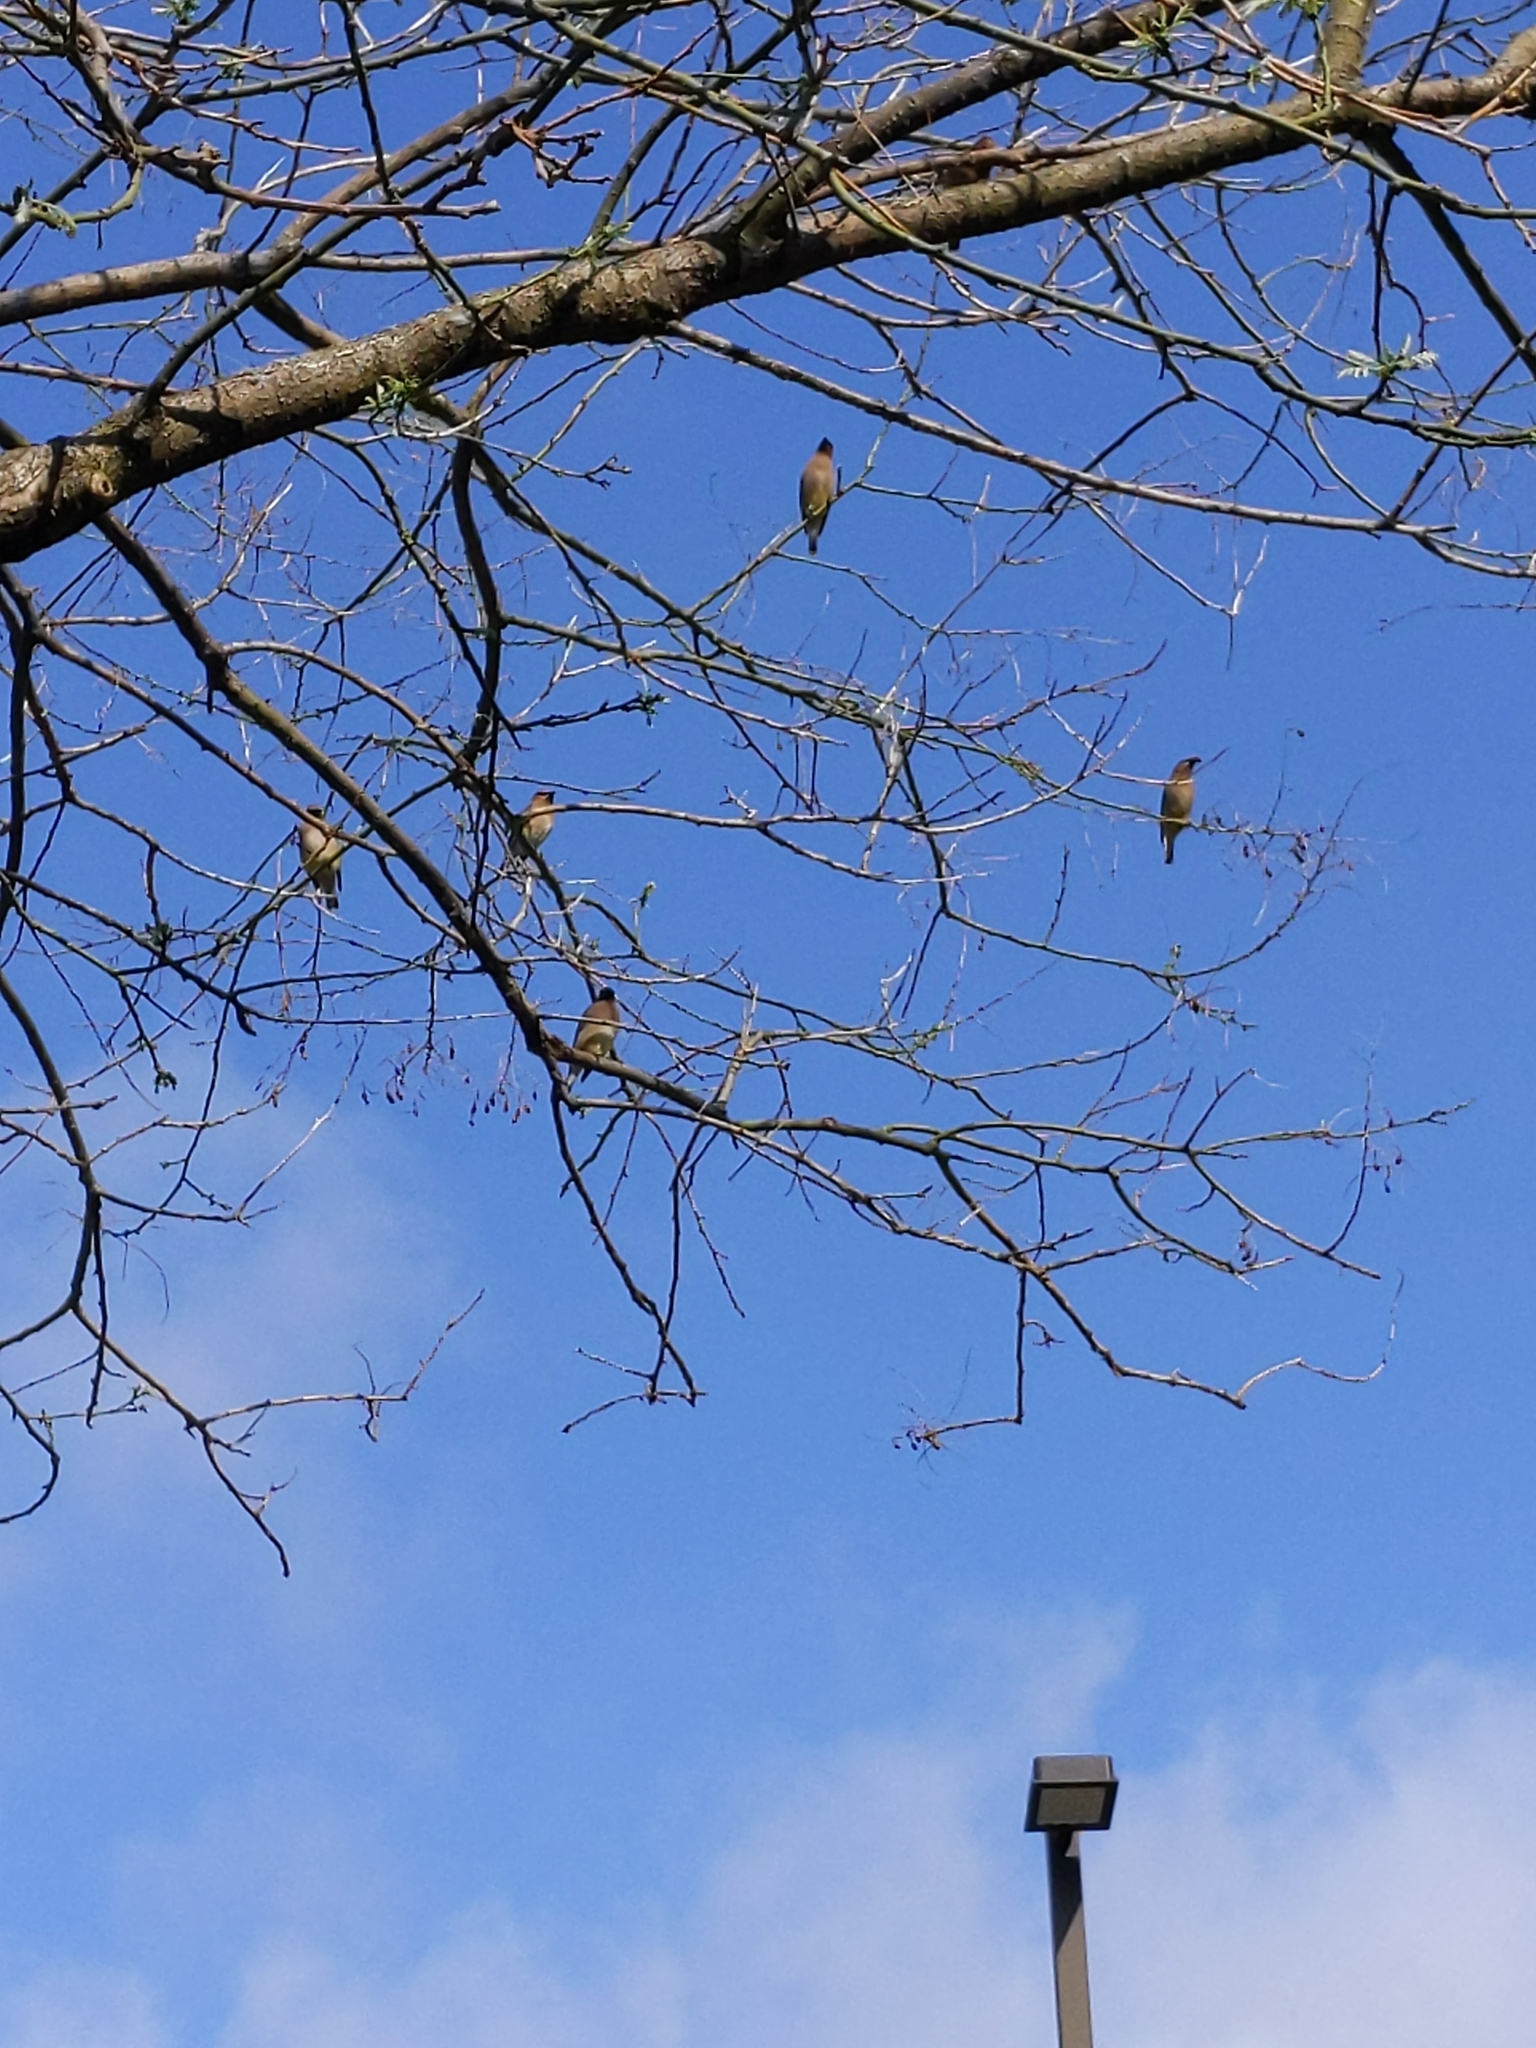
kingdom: Animalia
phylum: Chordata
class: Aves
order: Passeriformes
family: Bombycillidae
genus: Bombycilla
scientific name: Bombycilla cedrorum
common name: Cedar waxwing
